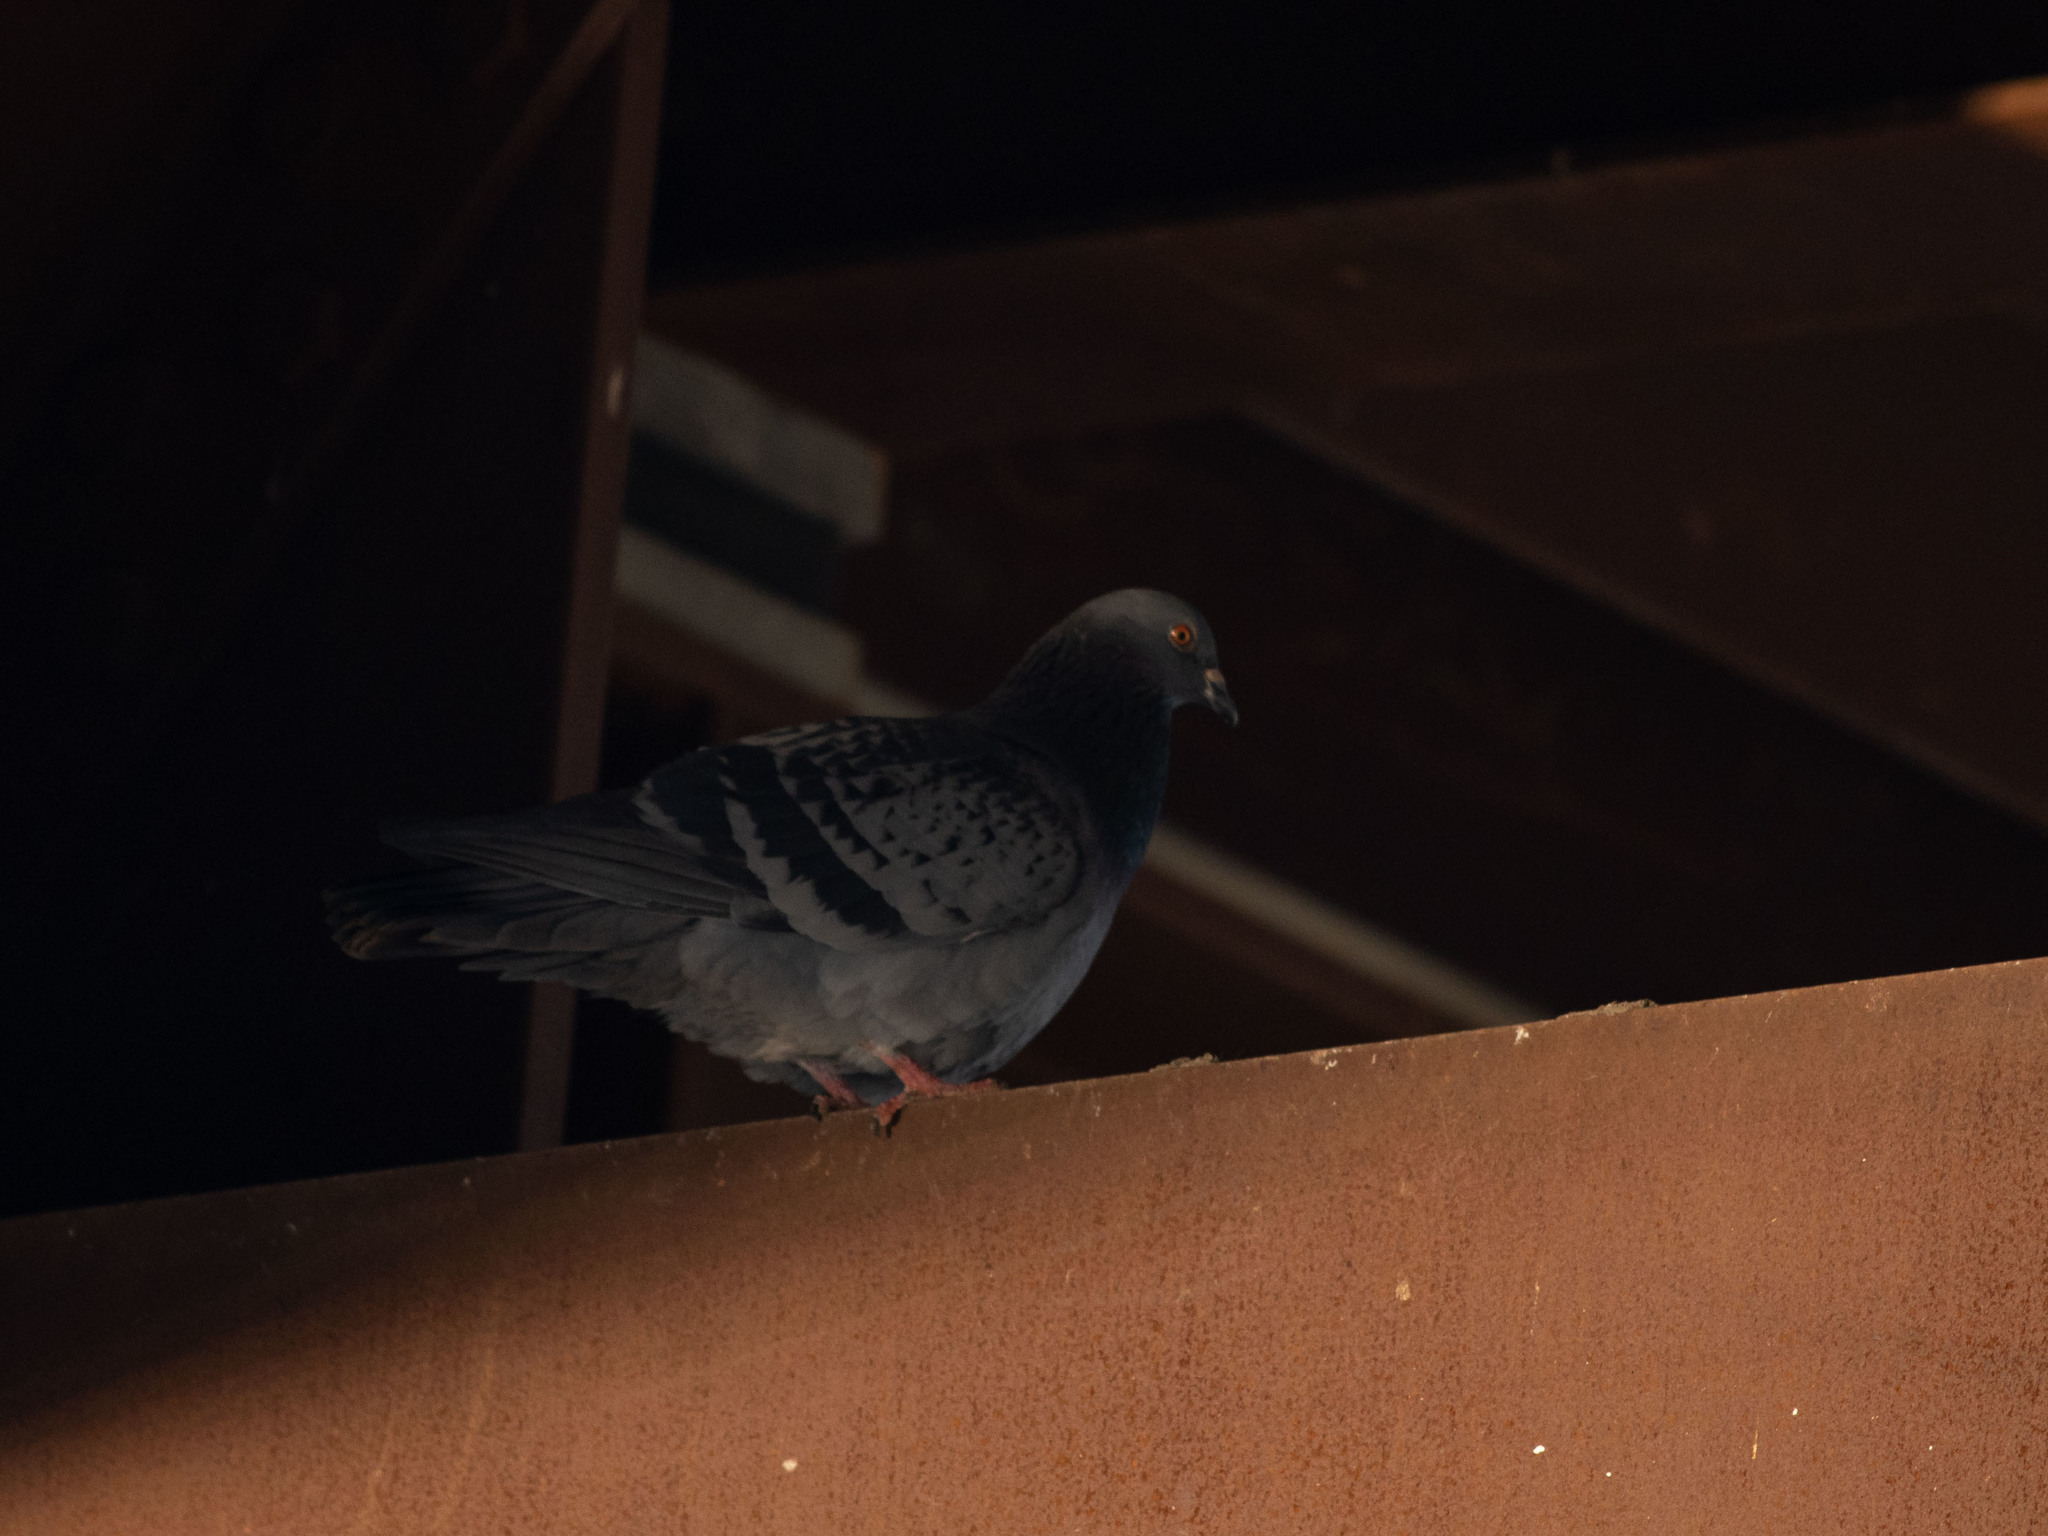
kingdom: Animalia
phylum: Chordata
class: Aves
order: Columbiformes
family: Columbidae
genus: Columba
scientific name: Columba livia
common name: Rock pigeon
